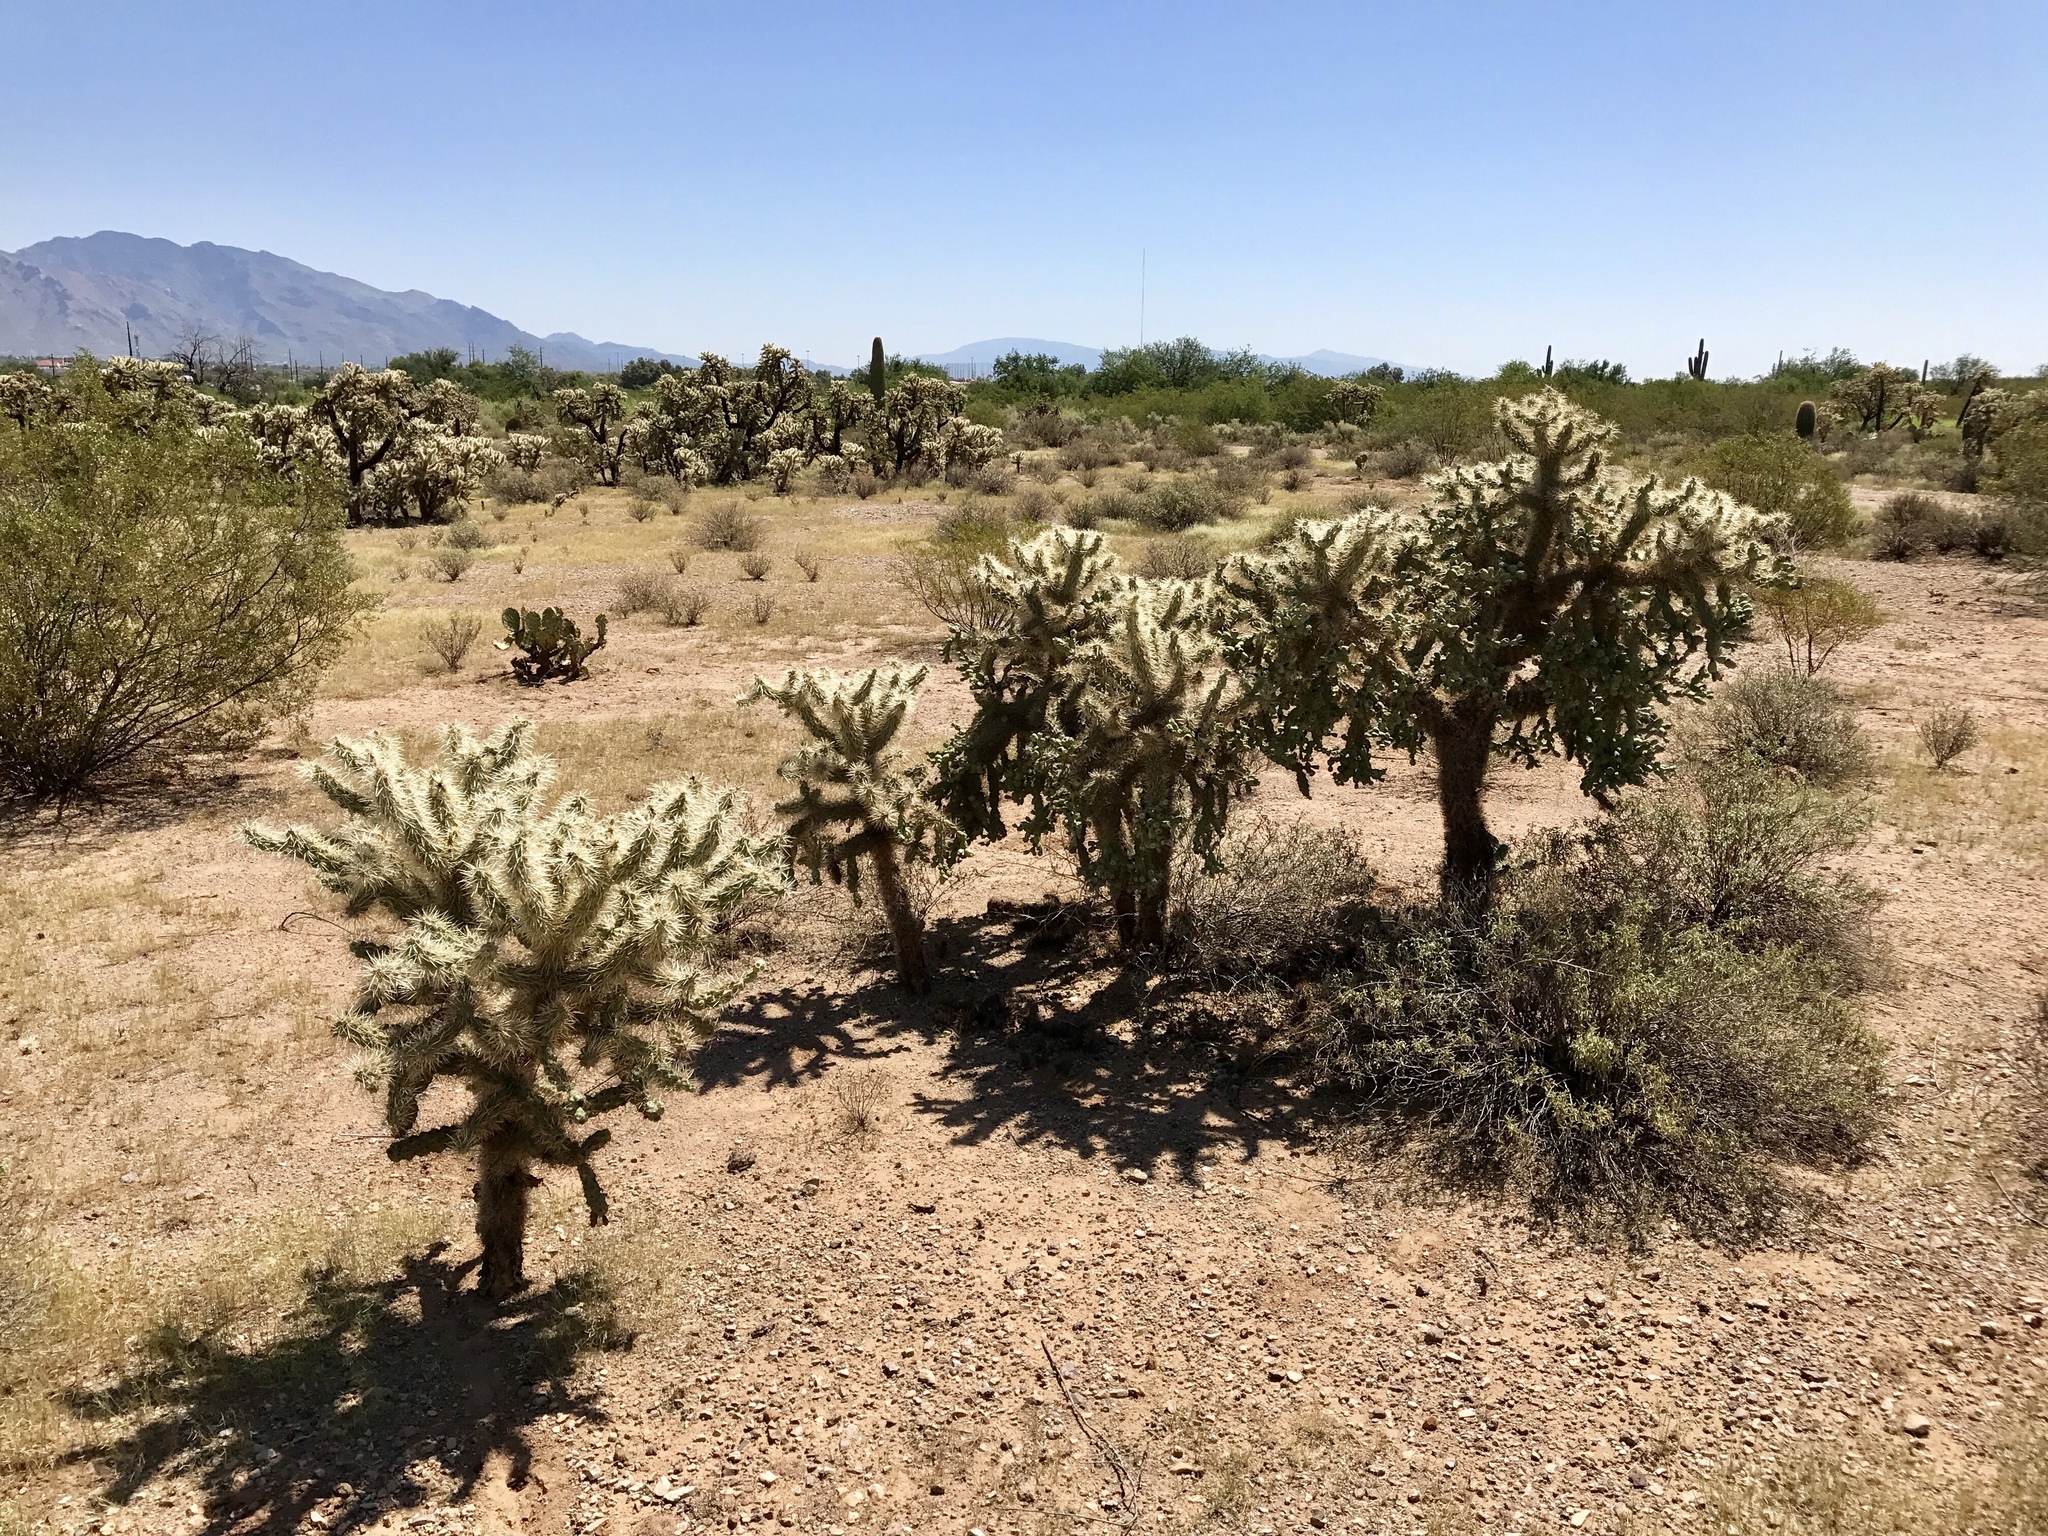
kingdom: Plantae
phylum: Tracheophyta
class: Magnoliopsida
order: Caryophyllales
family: Cactaceae
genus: Cylindropuntia
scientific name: Cylindropuntia fulgida
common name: Jumping cholla
